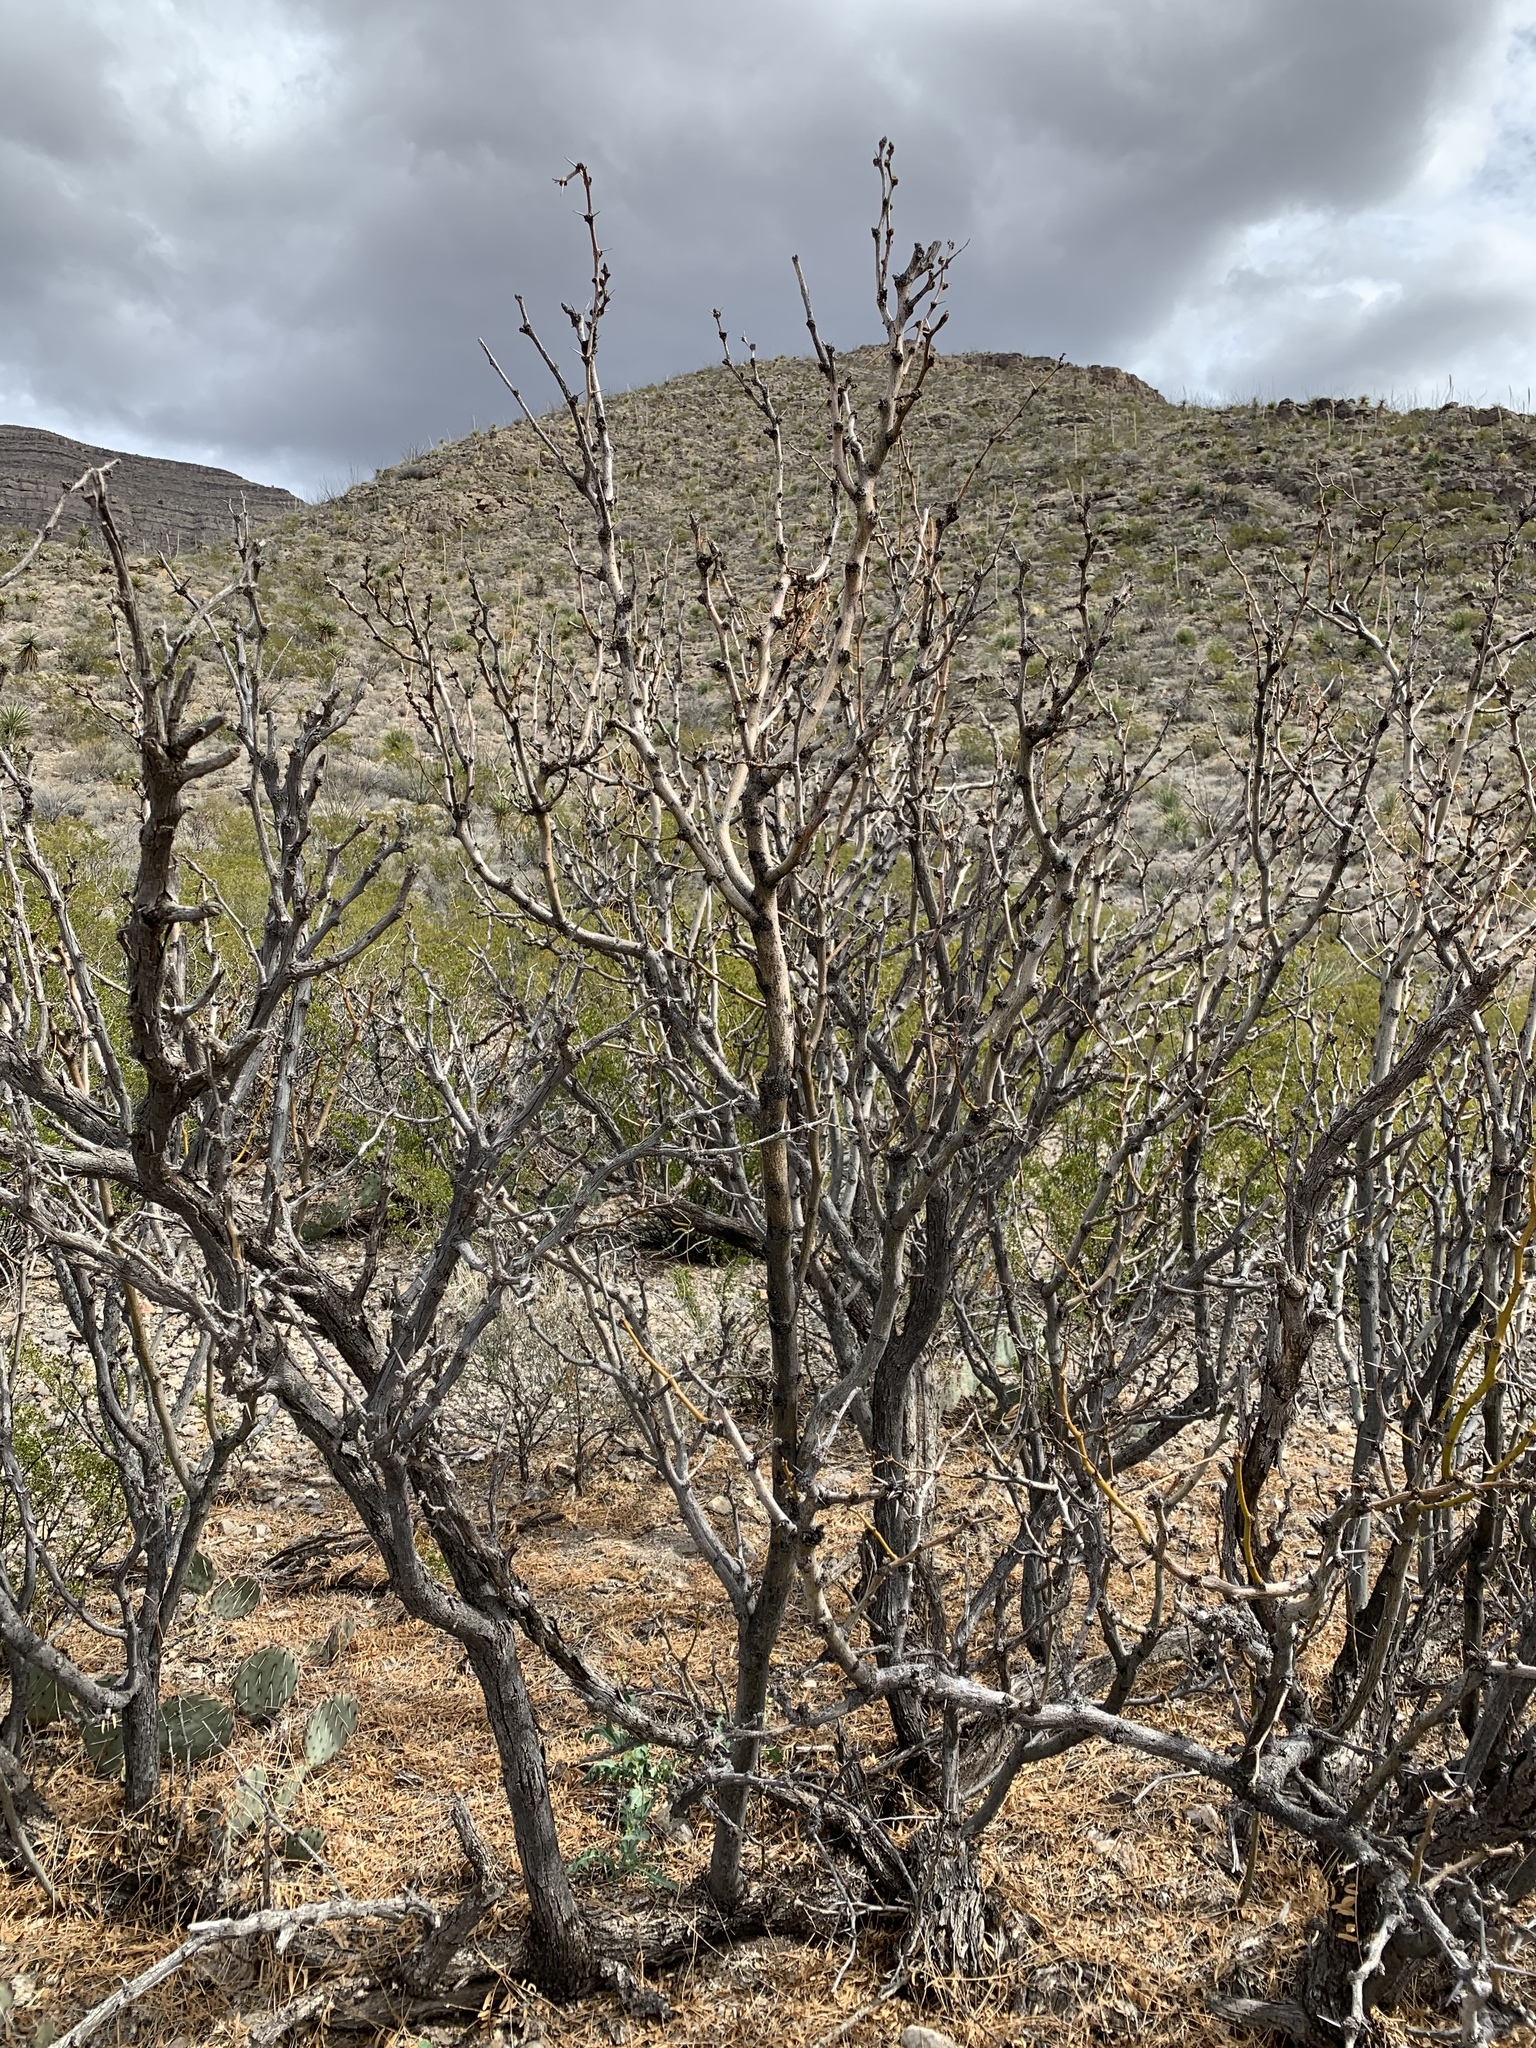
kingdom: Plantae
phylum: Tracheophyta
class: Magnoliopsida
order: Fabales
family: Fabaceae
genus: Prosopis
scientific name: Prosopis glandulosa
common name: Honey mesquite
